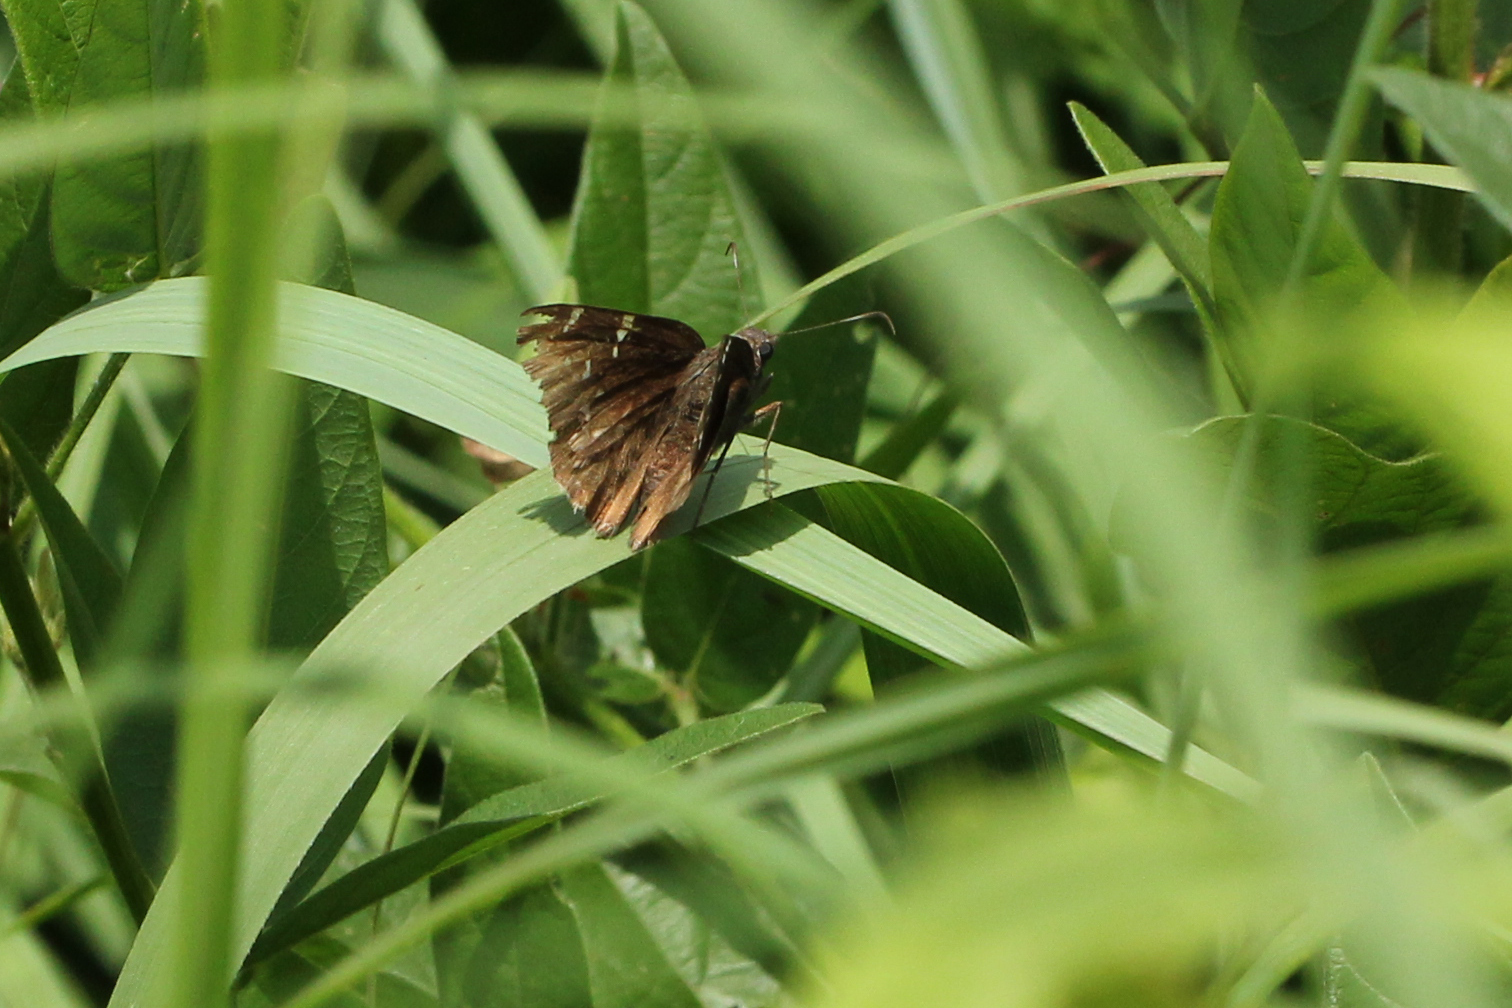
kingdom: Animalia
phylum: Arthropoda
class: Insecta
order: Lepidoptera
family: Hesperiidae
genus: Thorybes
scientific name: Thorybes pylades
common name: Northern cloudywing
